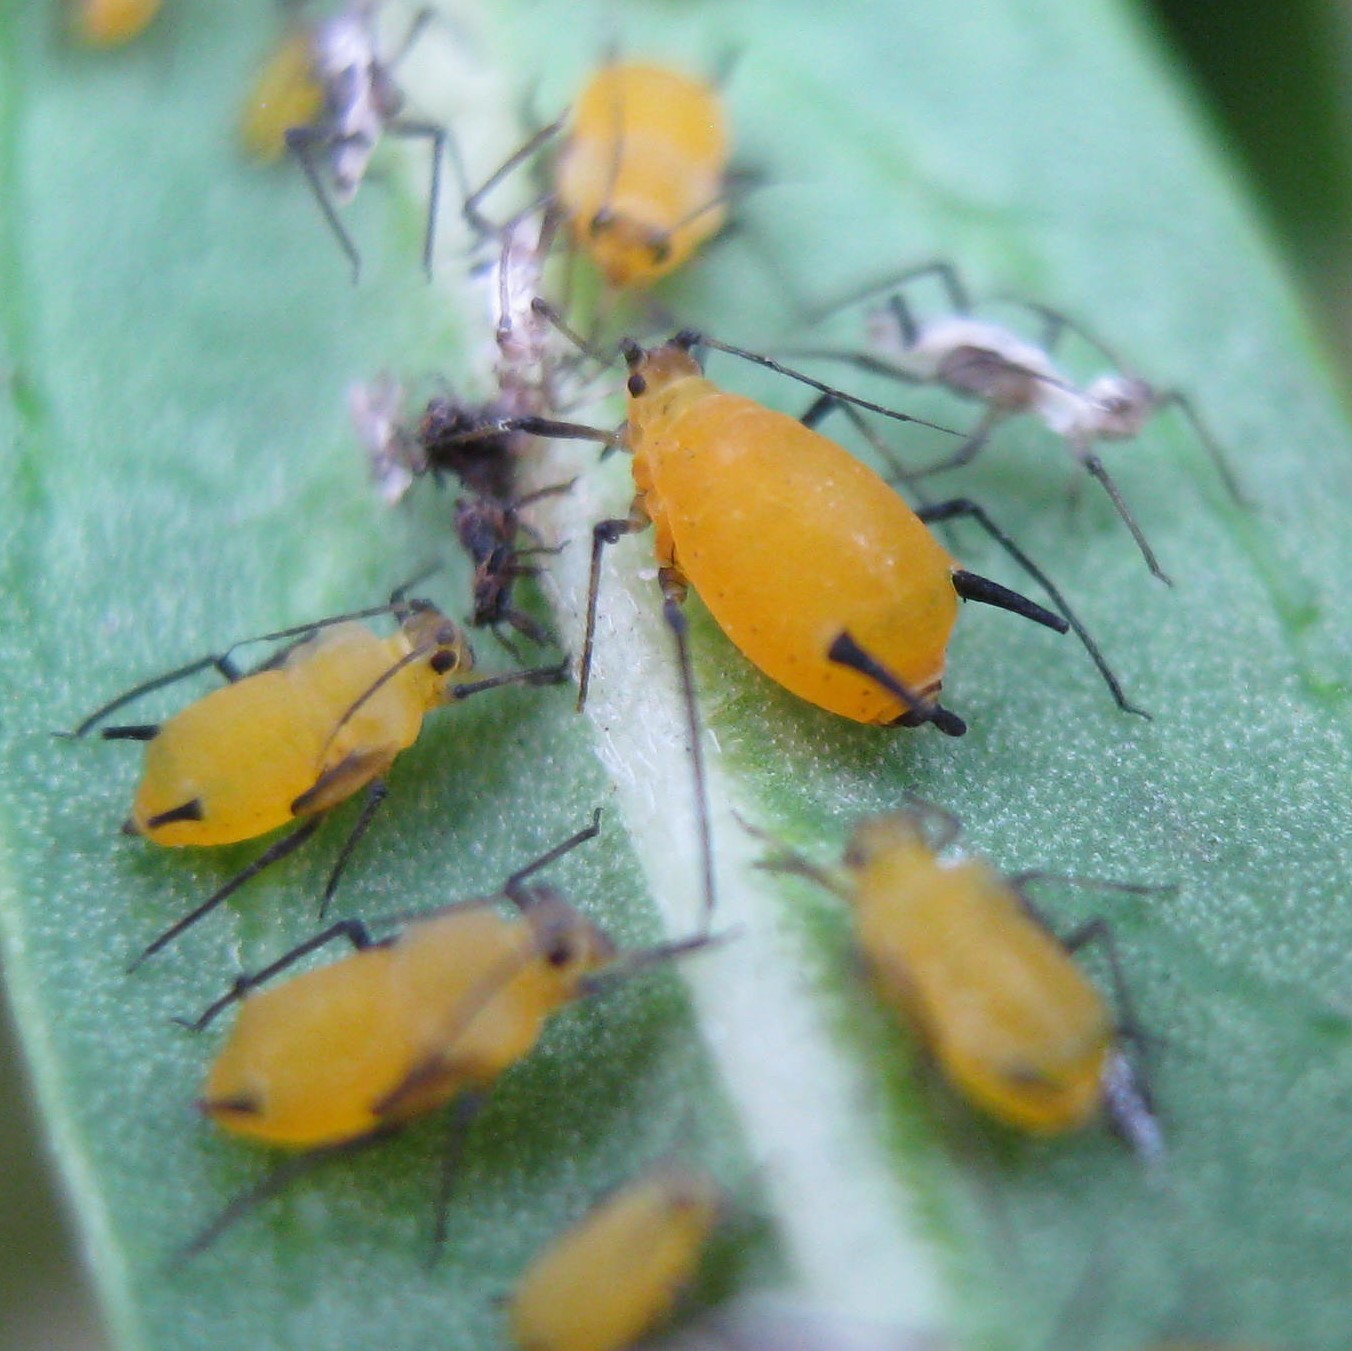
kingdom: Animalia
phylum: Arthropoda
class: Insecta
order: Hemiptera
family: Aphididae
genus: Aphis
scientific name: Aphis nerii
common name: Oleander aphid
